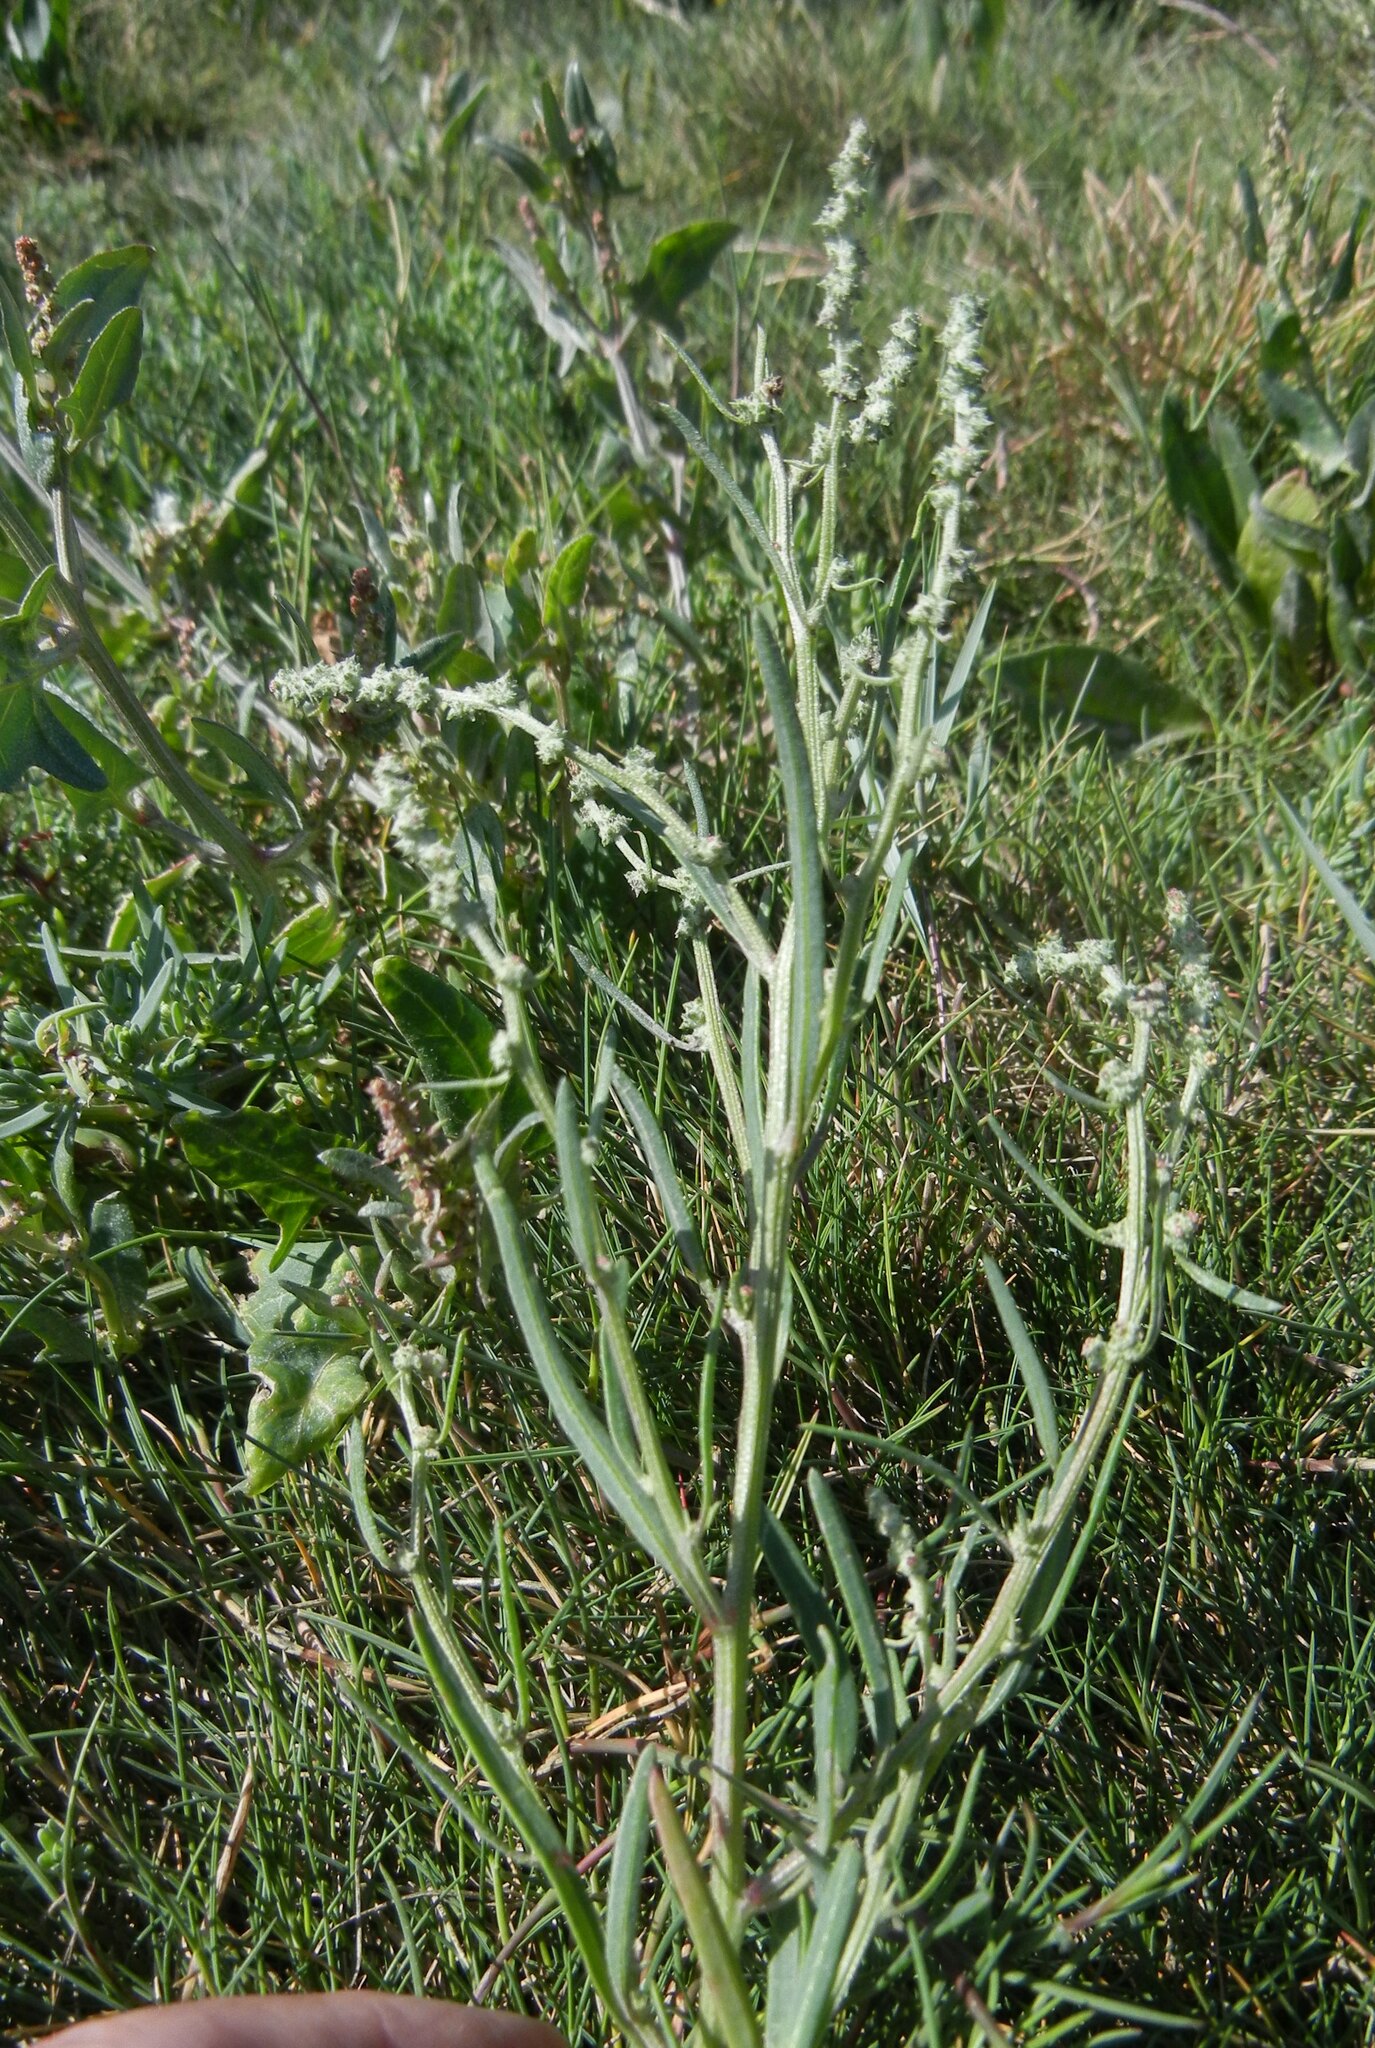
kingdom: Plantae
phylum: Tracheophyta
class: Magnoliopsida
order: Caryophyllales
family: Amaranthaceae
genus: Atriplex
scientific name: Atriplex littoralis
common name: Grass-leaved orache
